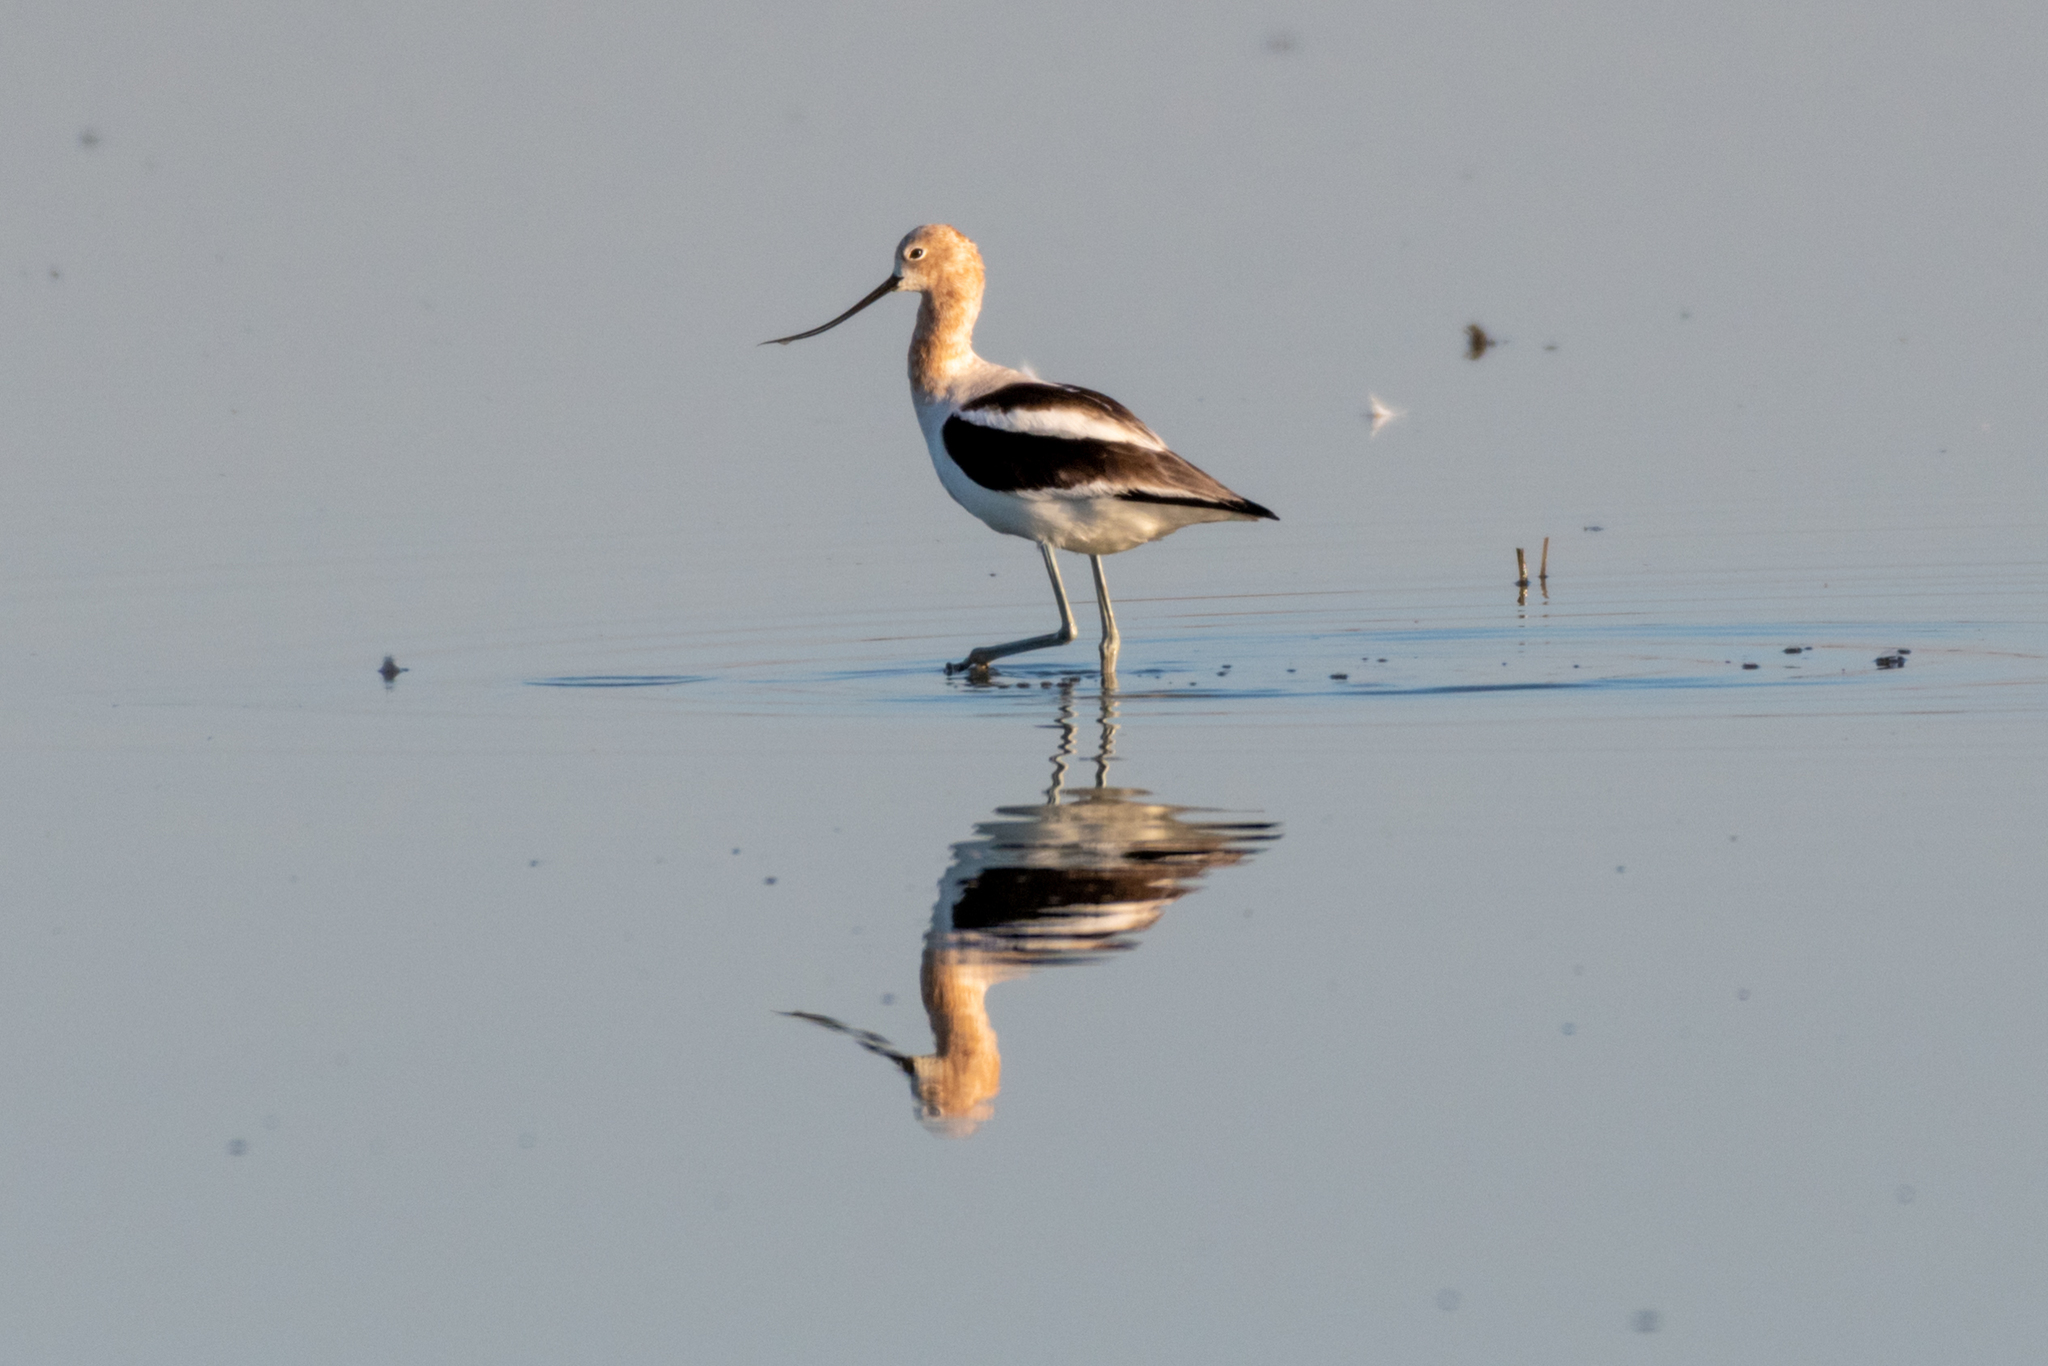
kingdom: Animalia
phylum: Chordata
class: Aves
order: Charadriiformes
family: Recurvirostridae
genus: Recurvirostra
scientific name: Recurvirostra americana
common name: American avocet
